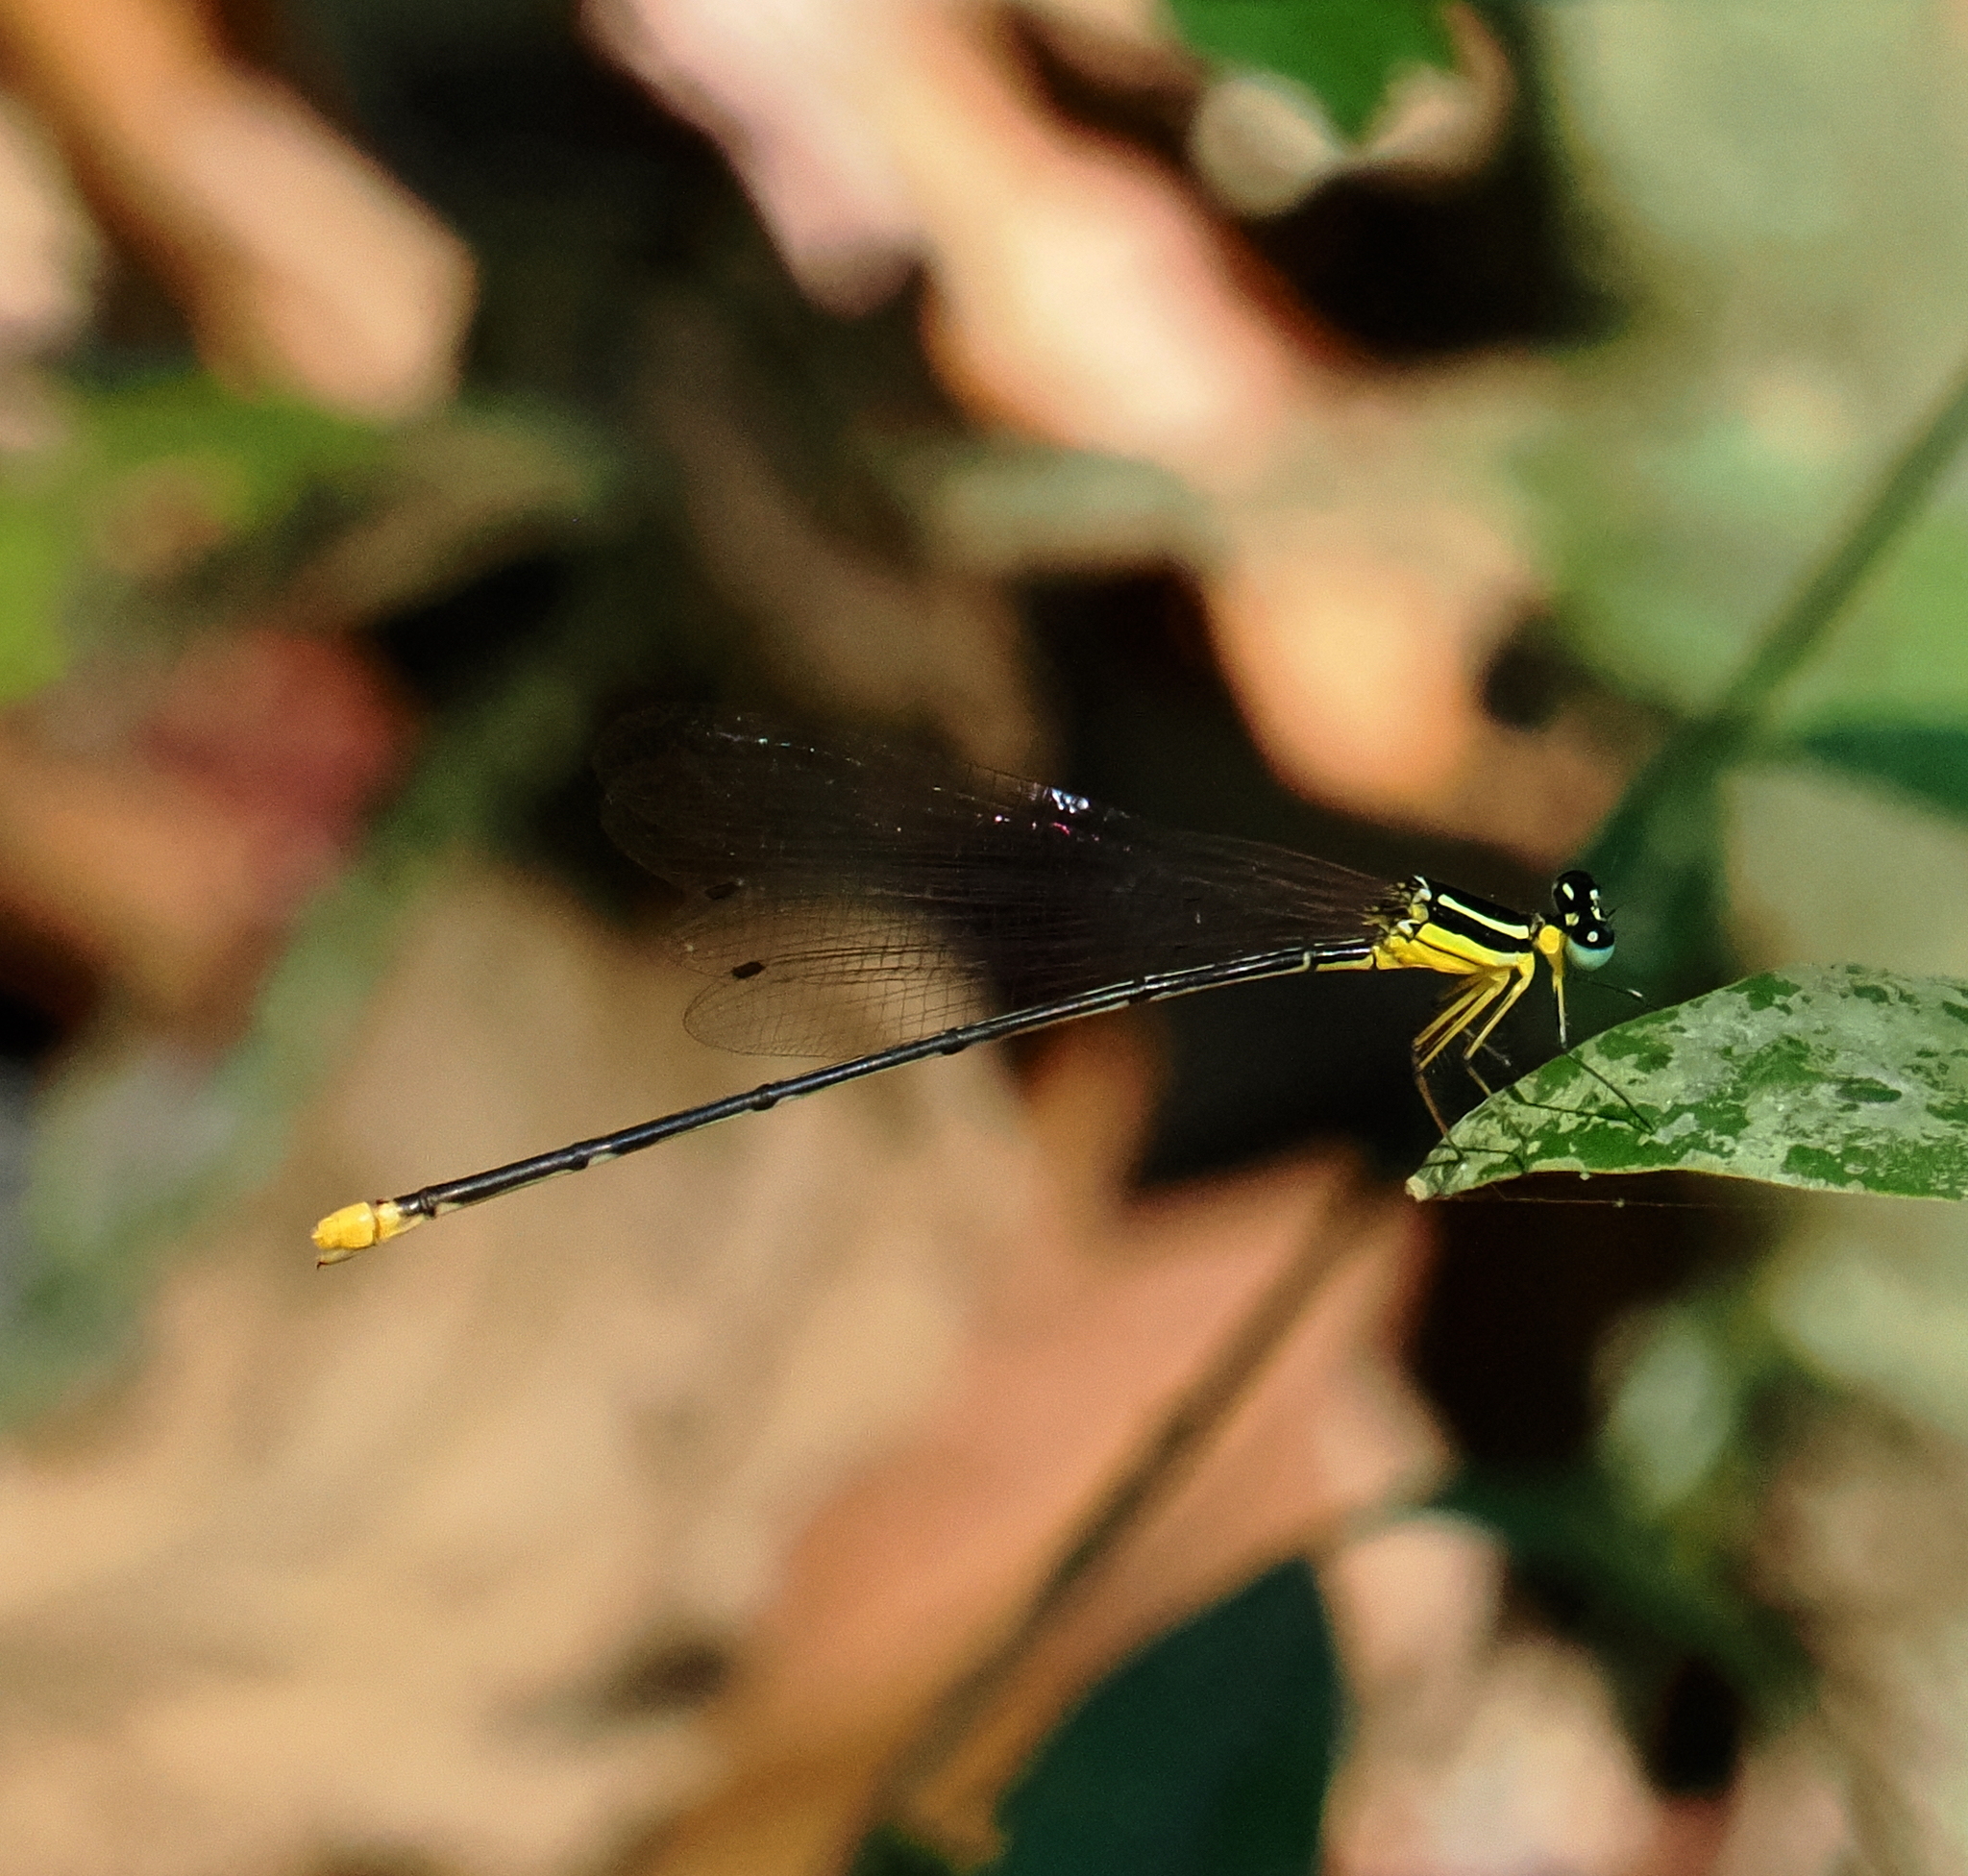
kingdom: Animalia
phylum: Arthropoda
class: Insecta
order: Odonata
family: Platycnemididae
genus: Coeliccia
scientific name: Coeliccia poungyi
